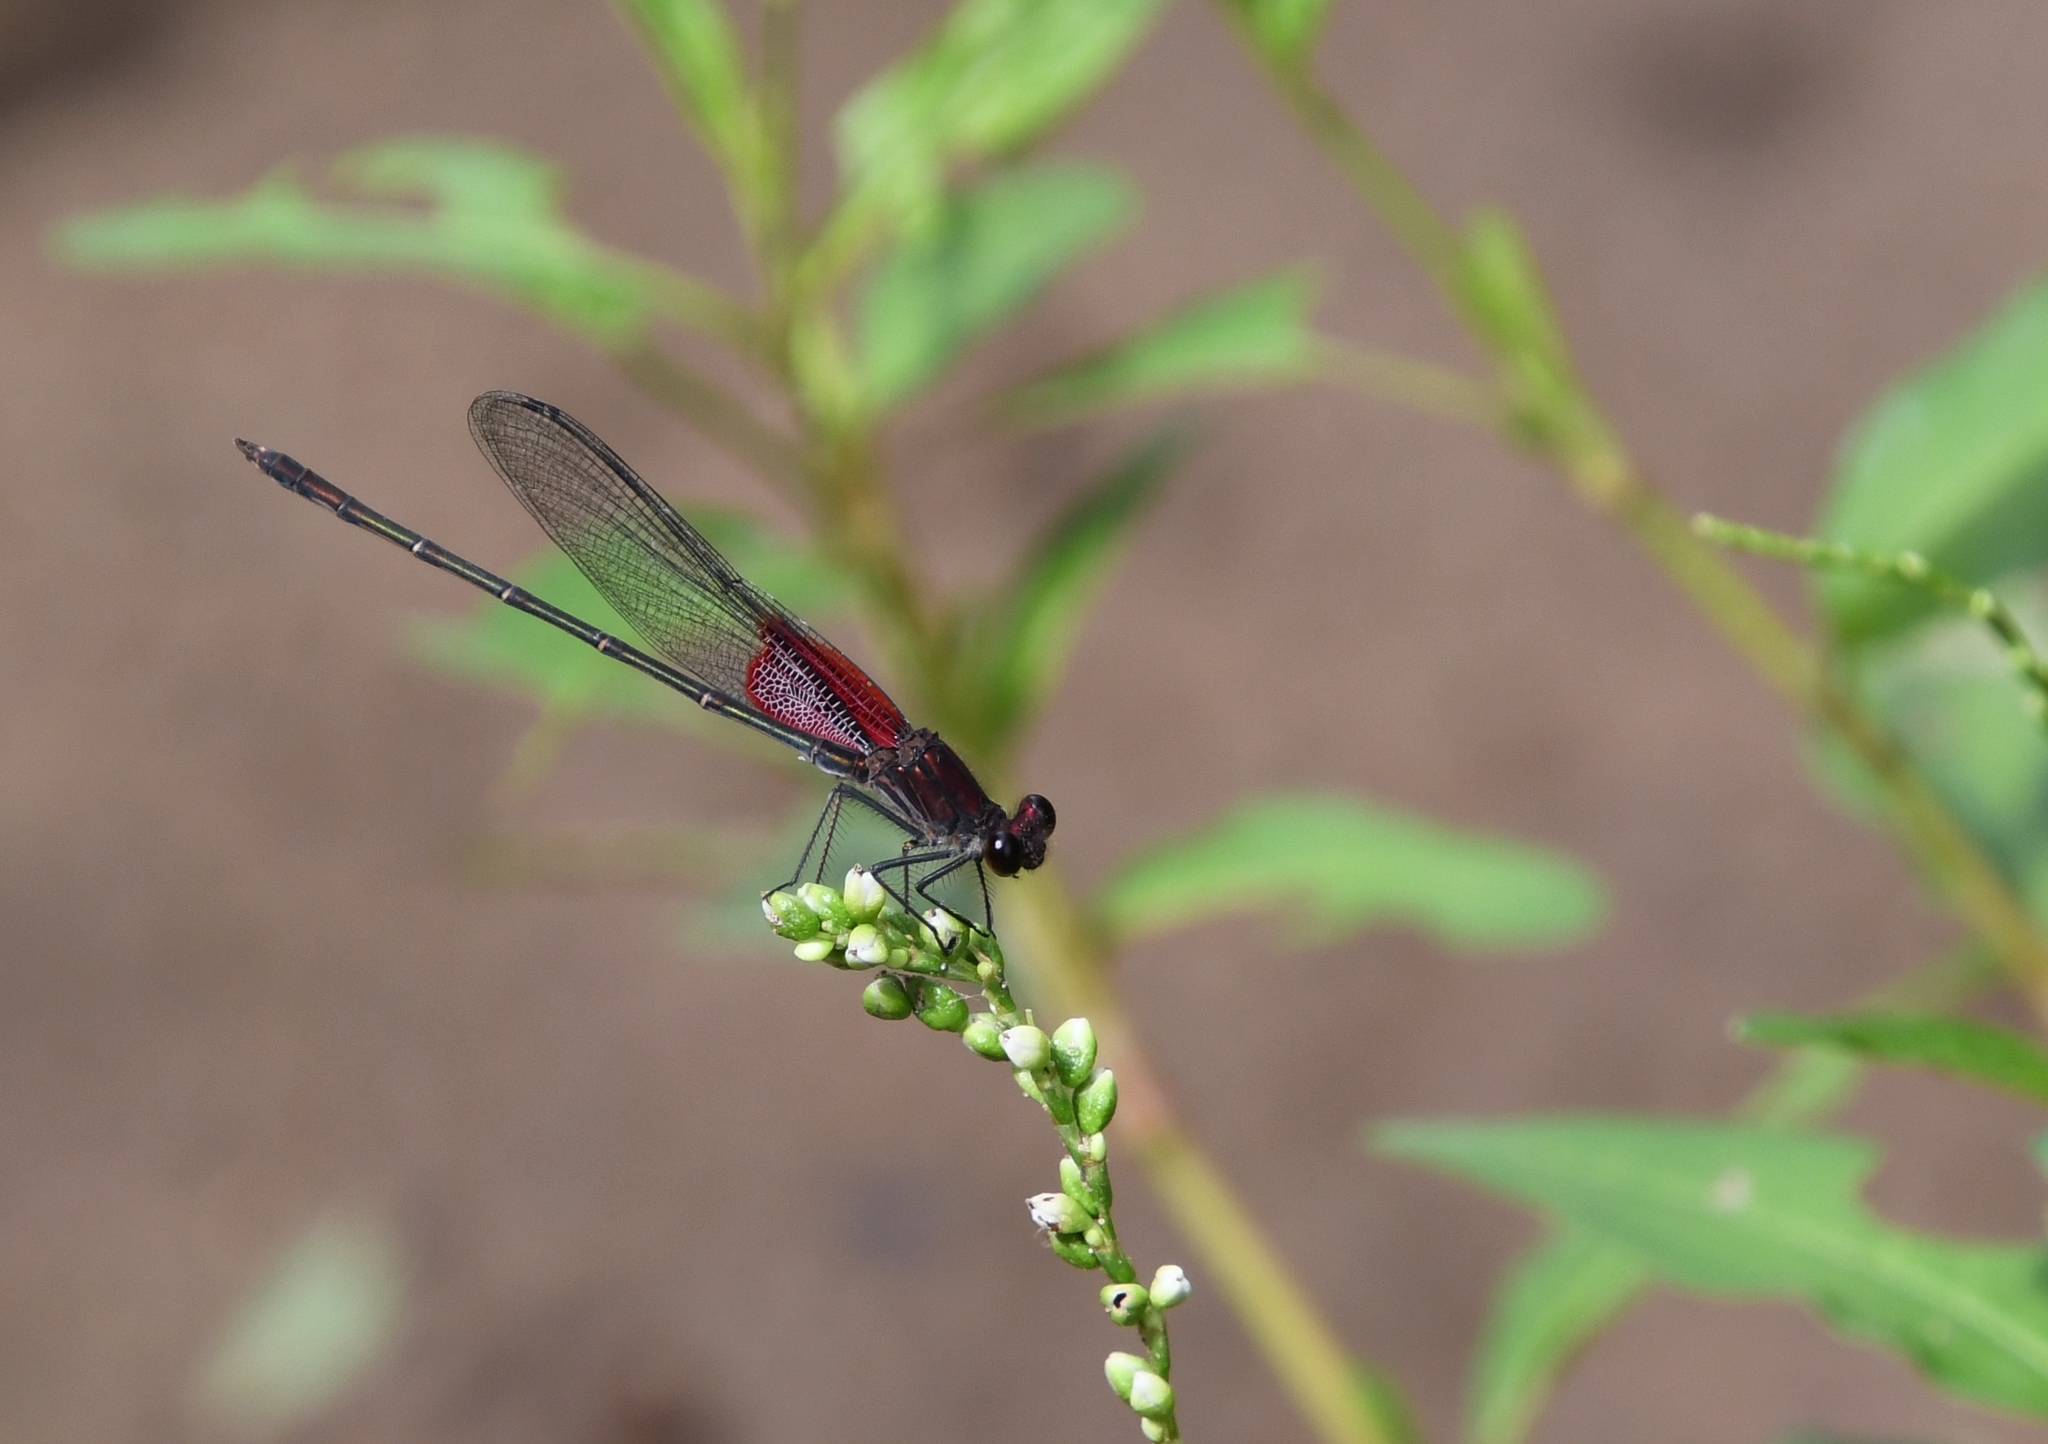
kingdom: Animalia
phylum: Arthropoda
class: Insecta
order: Odonata
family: Calopterygidae
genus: Hetaerina
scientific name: Hetaerina americana
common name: American rubyspot
